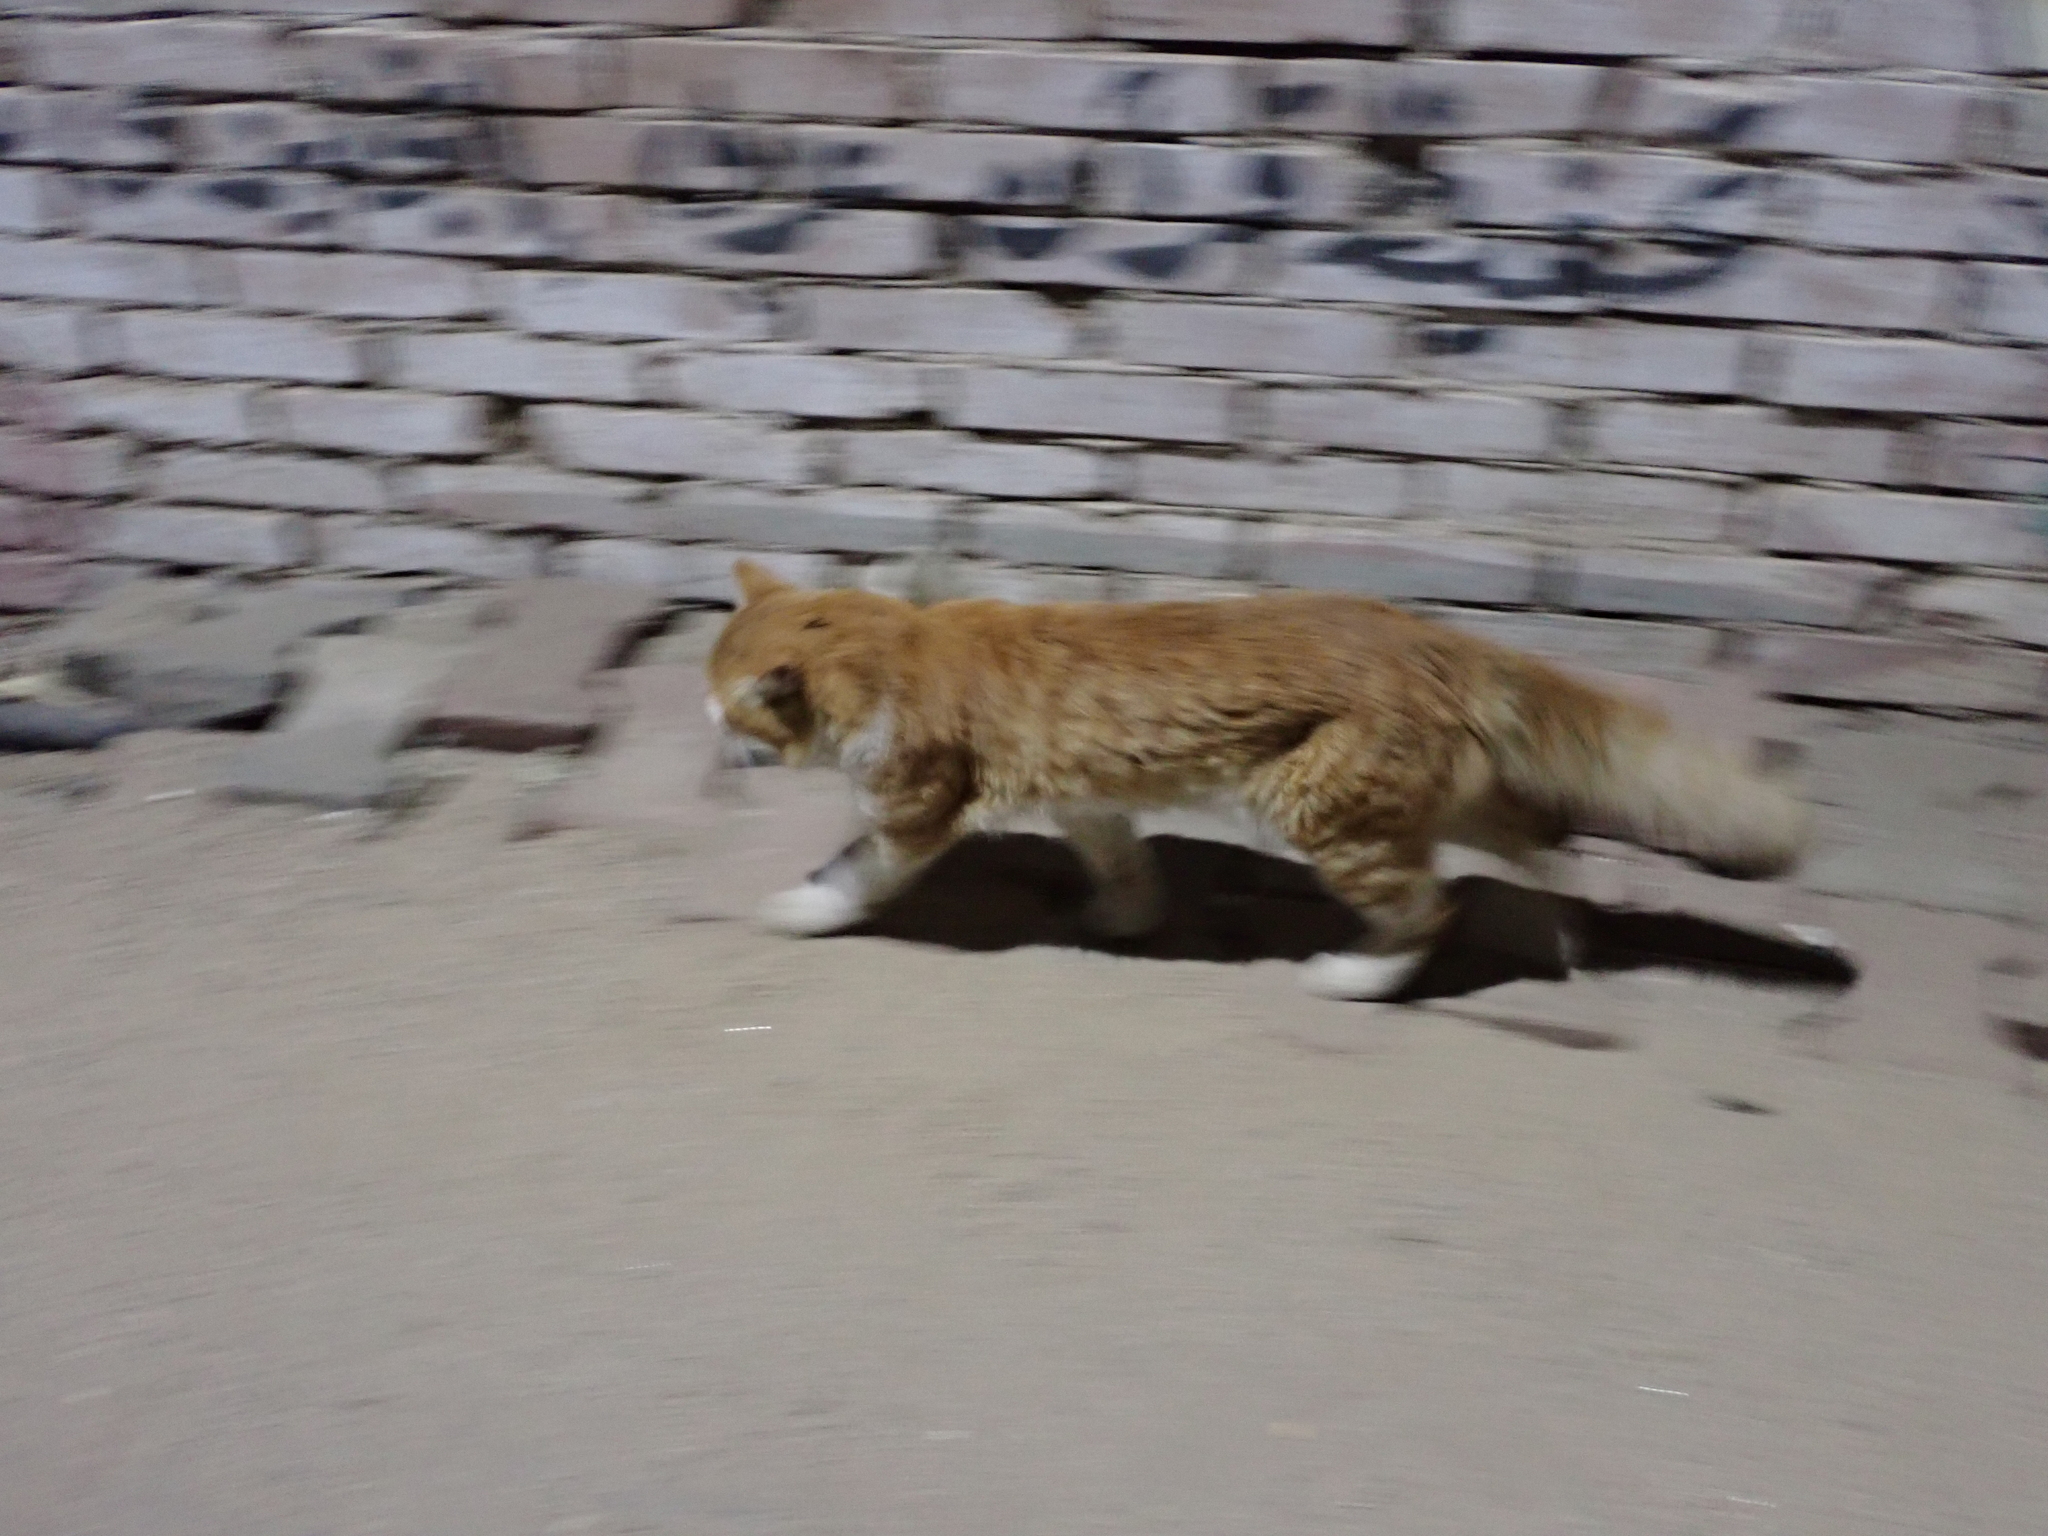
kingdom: Animalia
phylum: Chordata
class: Mammalia
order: Carnivora
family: Felidae
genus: Felis
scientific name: Felis catus
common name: Domestic cat
